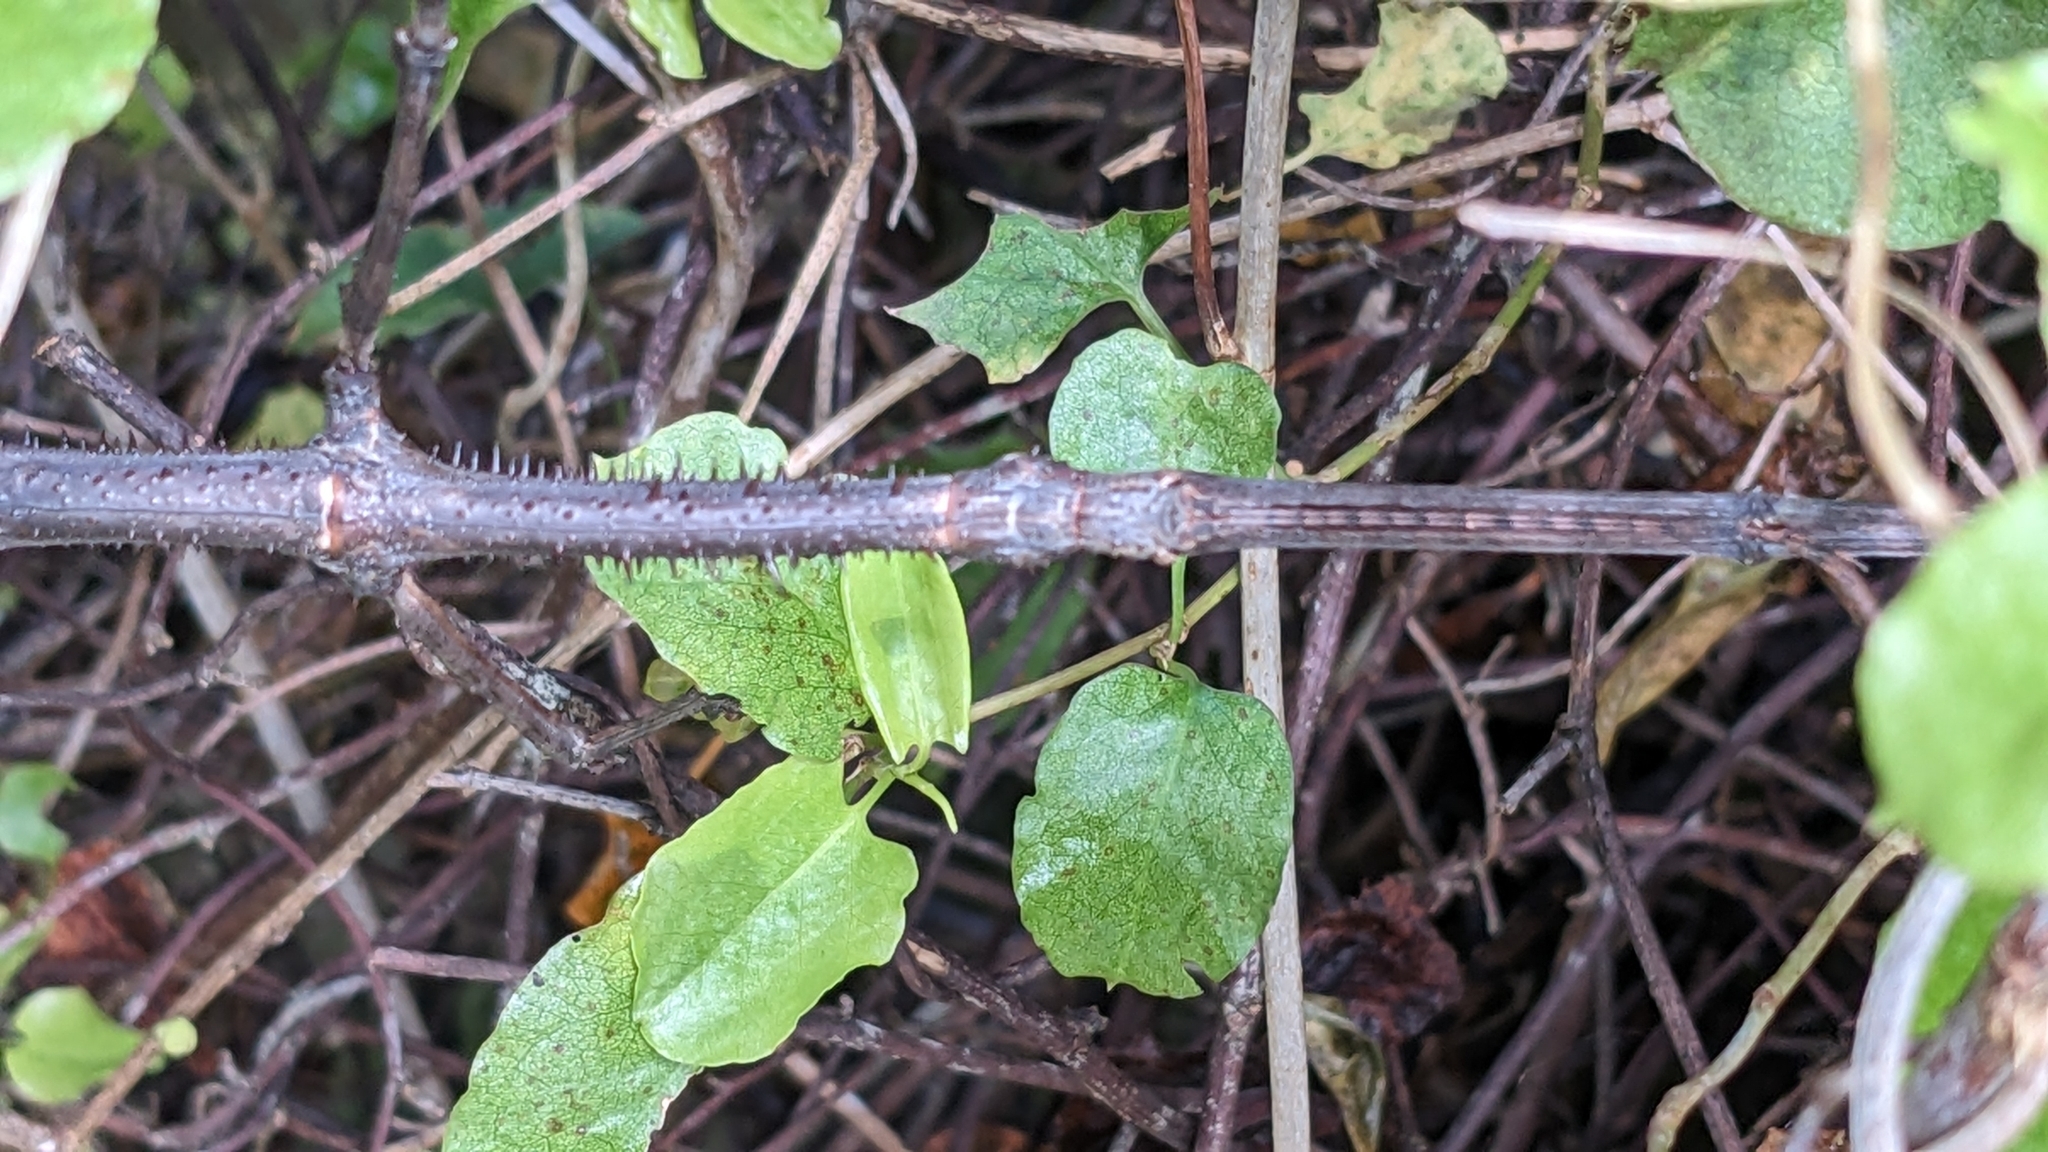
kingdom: Animalia
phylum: Arthropoda
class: Insecta
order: Phasmida
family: Phasmatidae
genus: Argosarchus
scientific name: Argosarchus horridus
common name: Bristly stick insect
